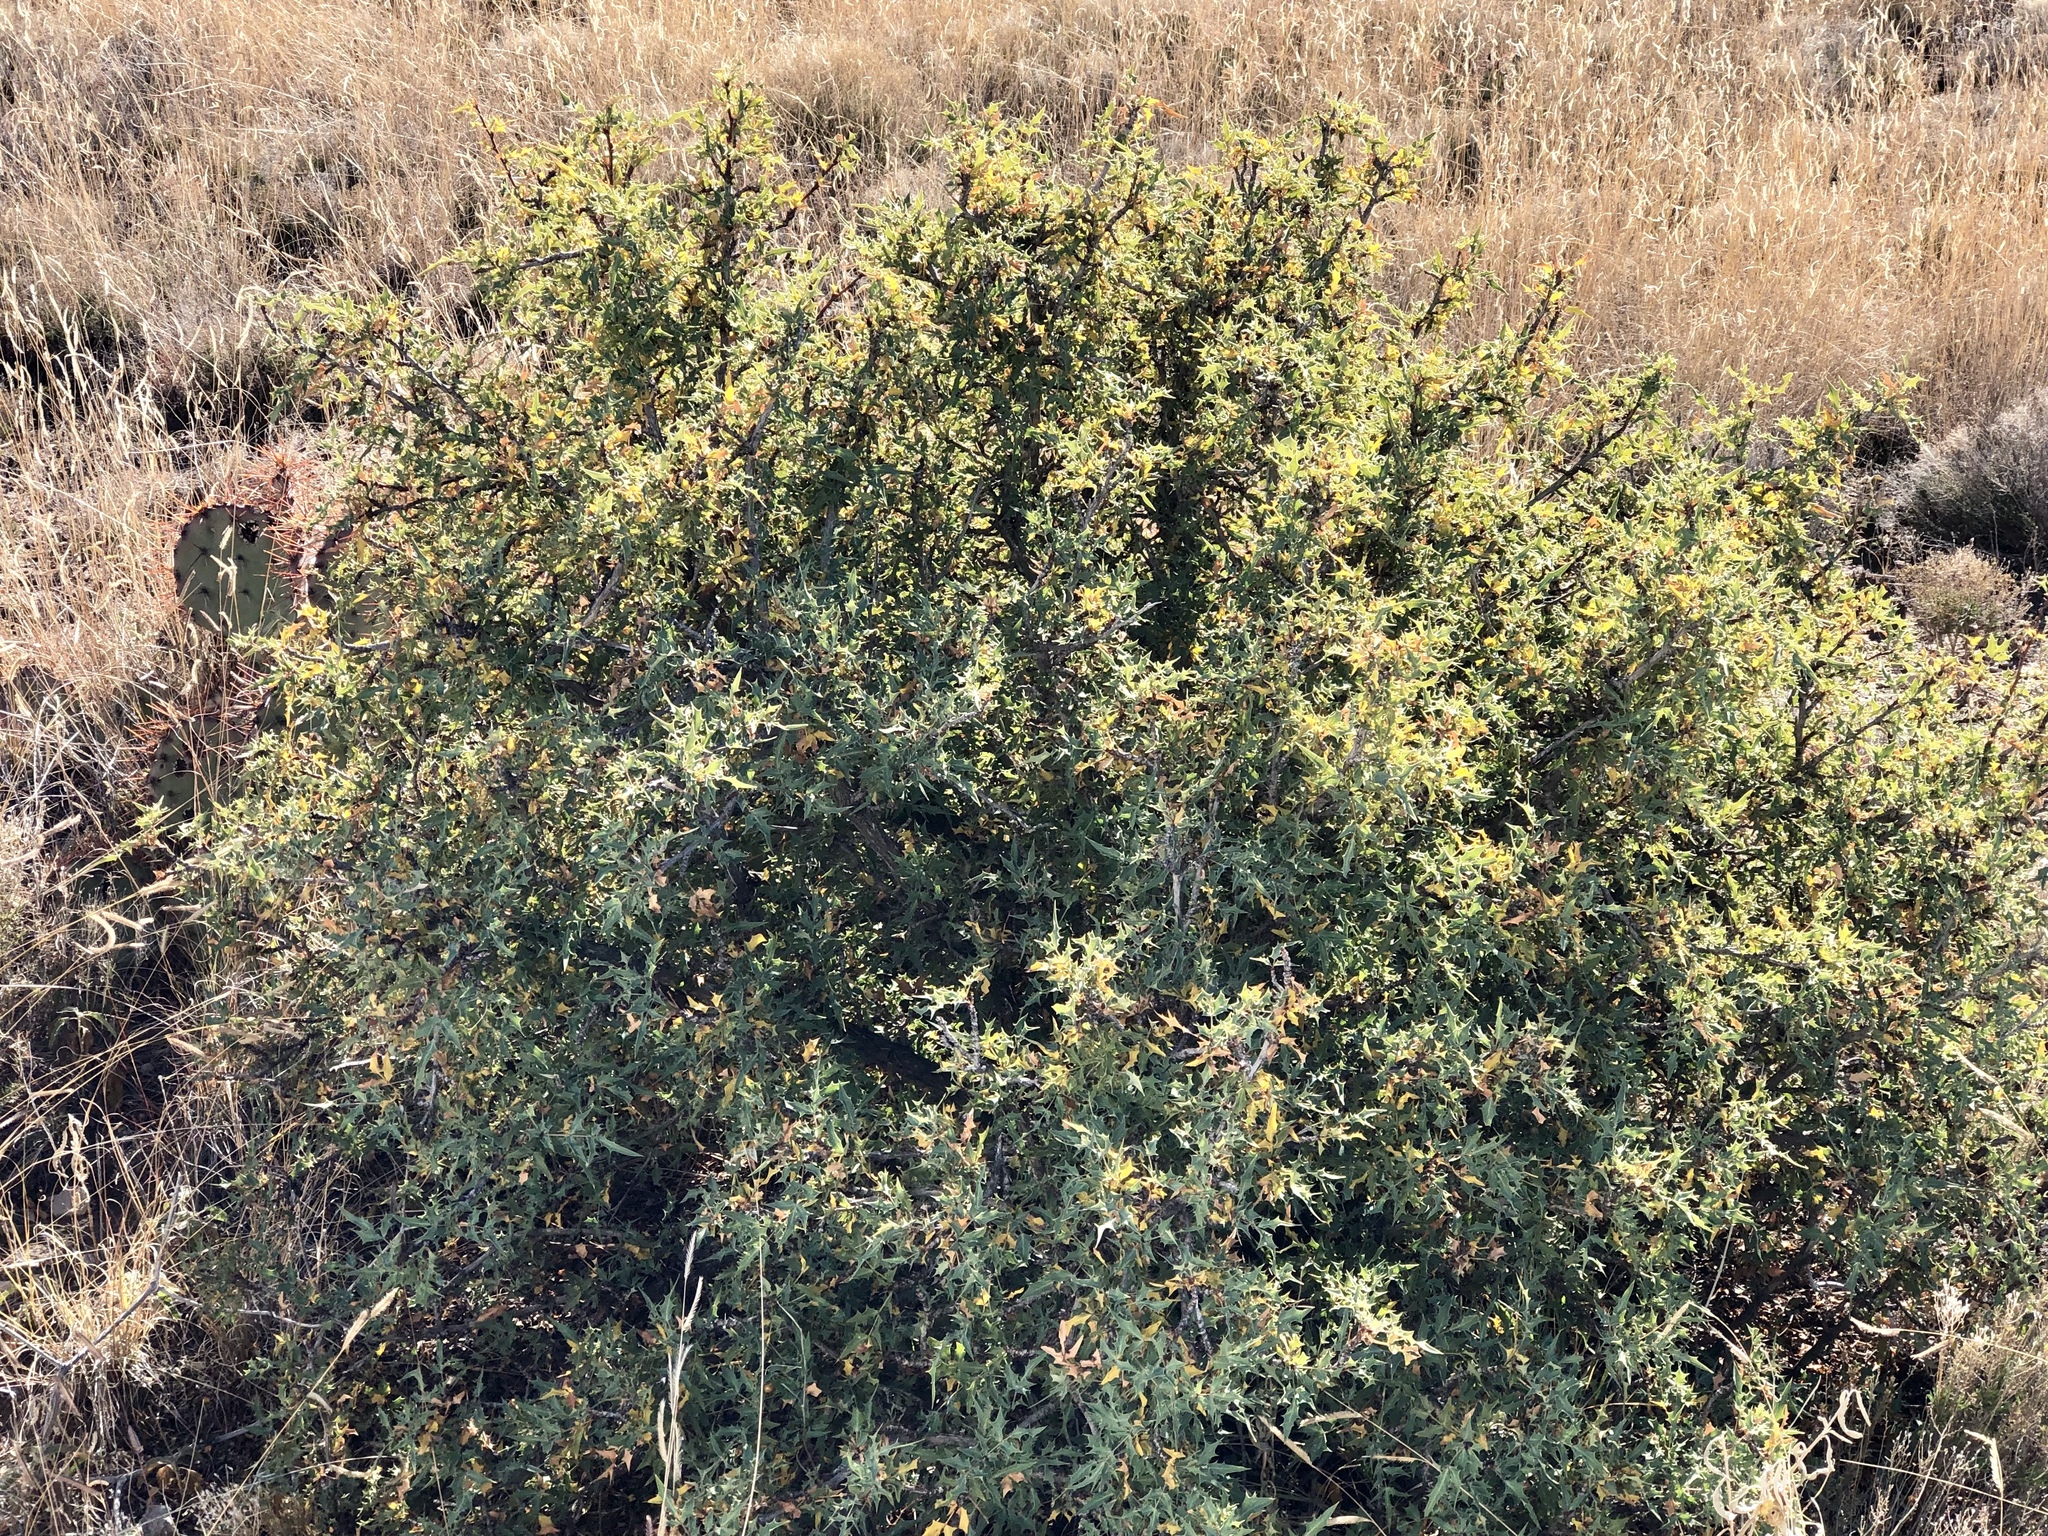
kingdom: Plantae
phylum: Tracheophyta
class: Magnoliopsida
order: Ranunculales
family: Berberidaceae
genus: Alloberberis
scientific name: Alloberberis trifoliolata
